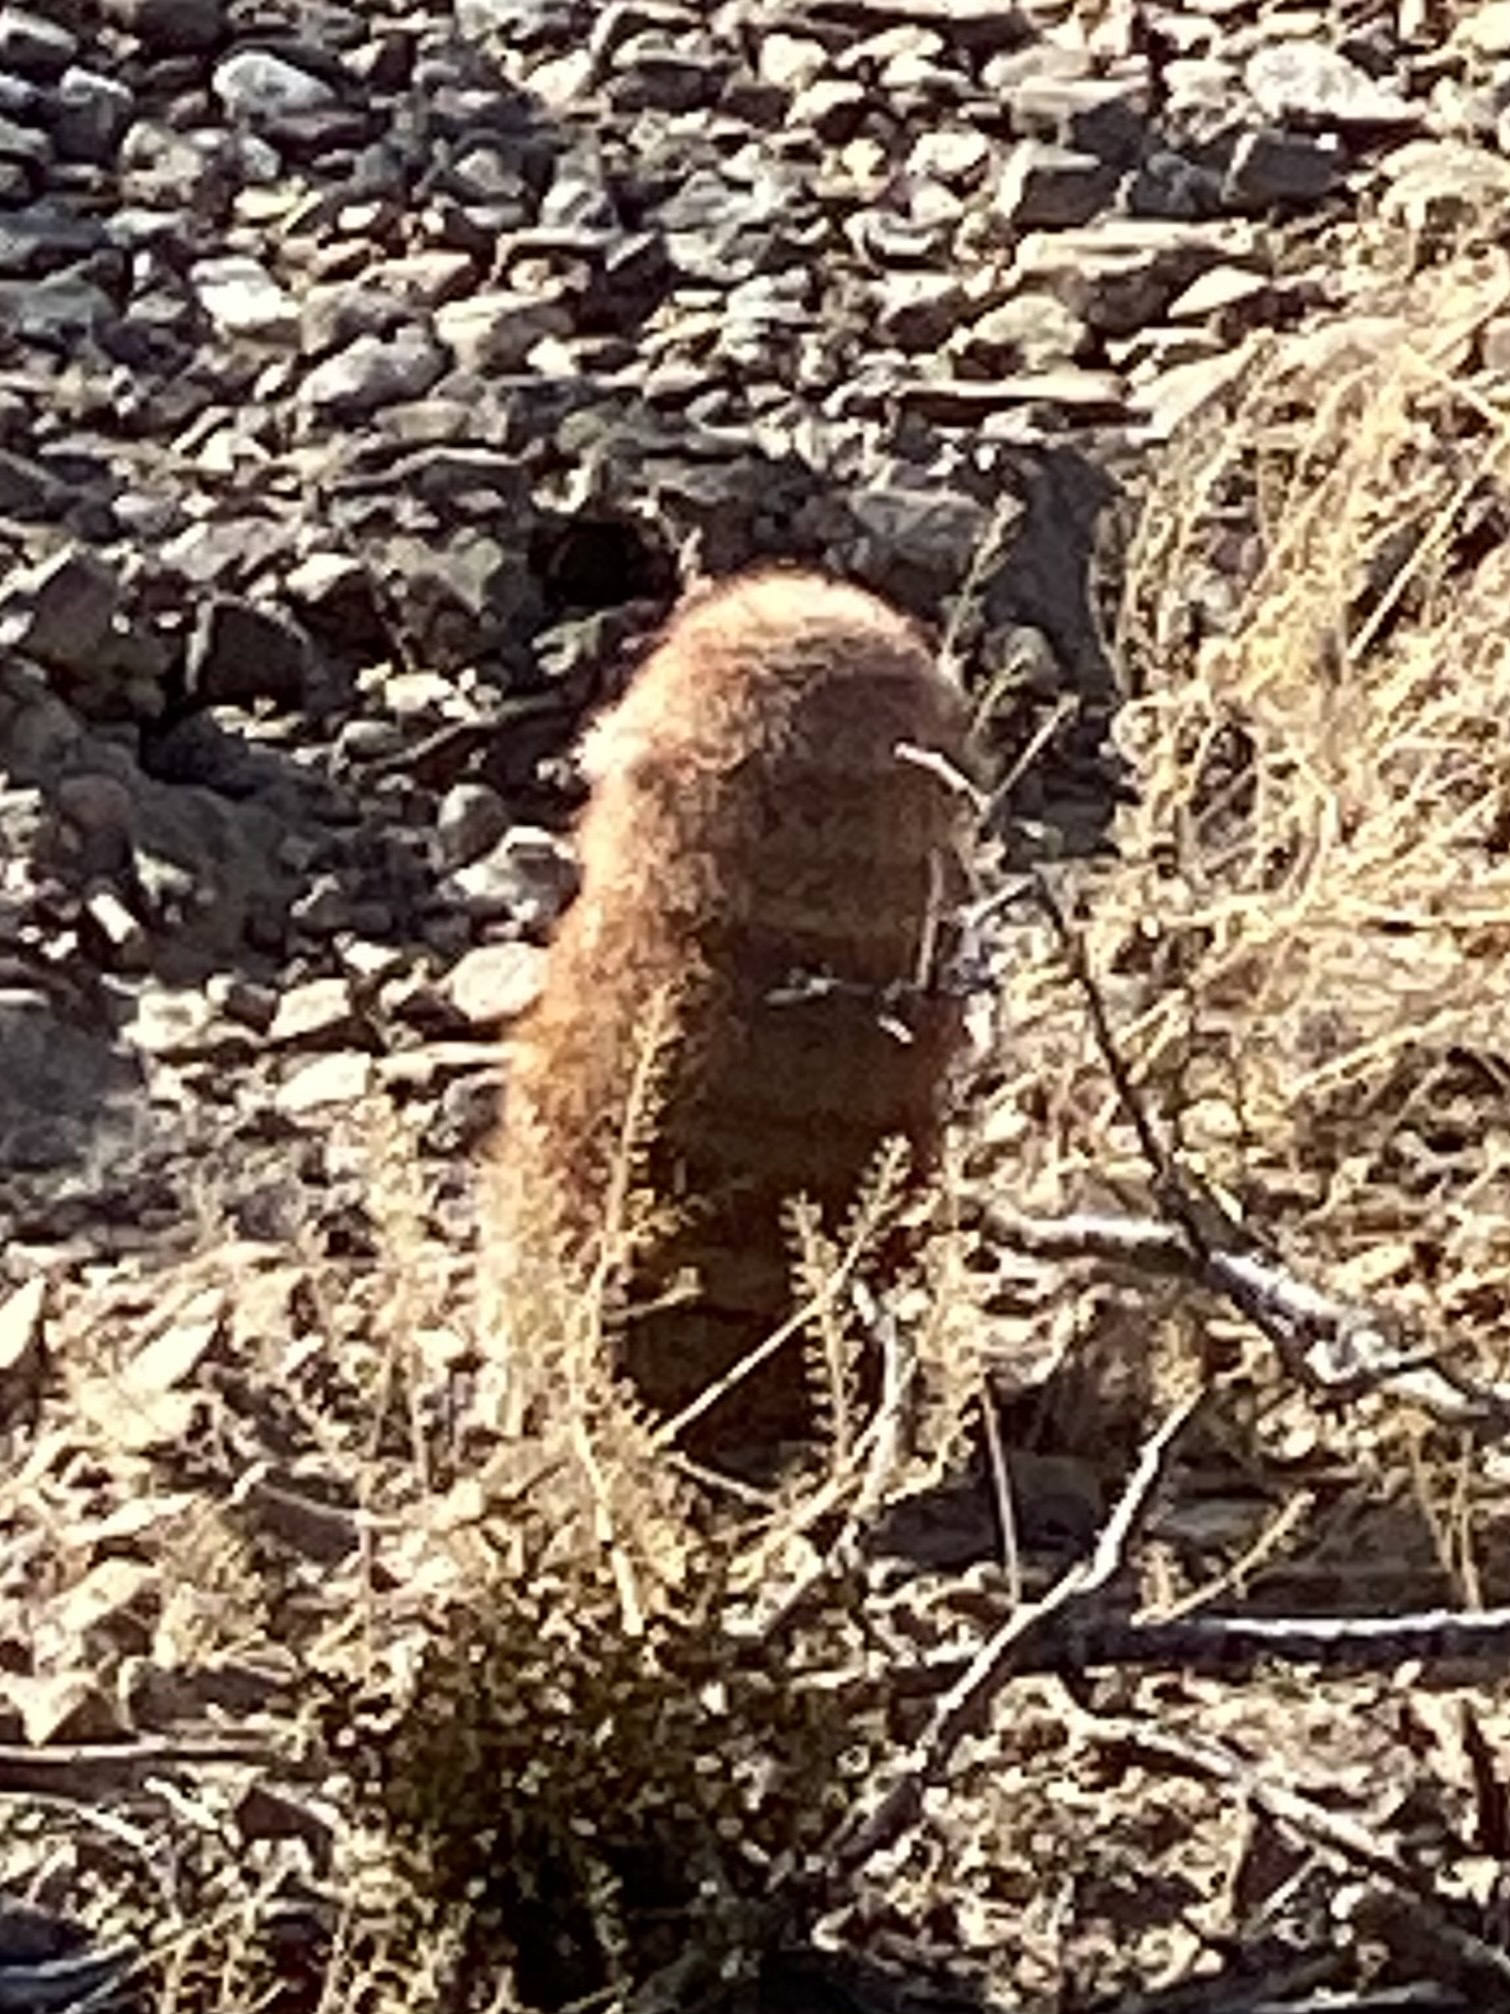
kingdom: Plantae
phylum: Tracheophyta
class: Magnoliopsida
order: Caryophyllales
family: Cactaceae
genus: Echinocereus
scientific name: Echinocereus dasyacanthus
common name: Spiny hedgehog cactus
